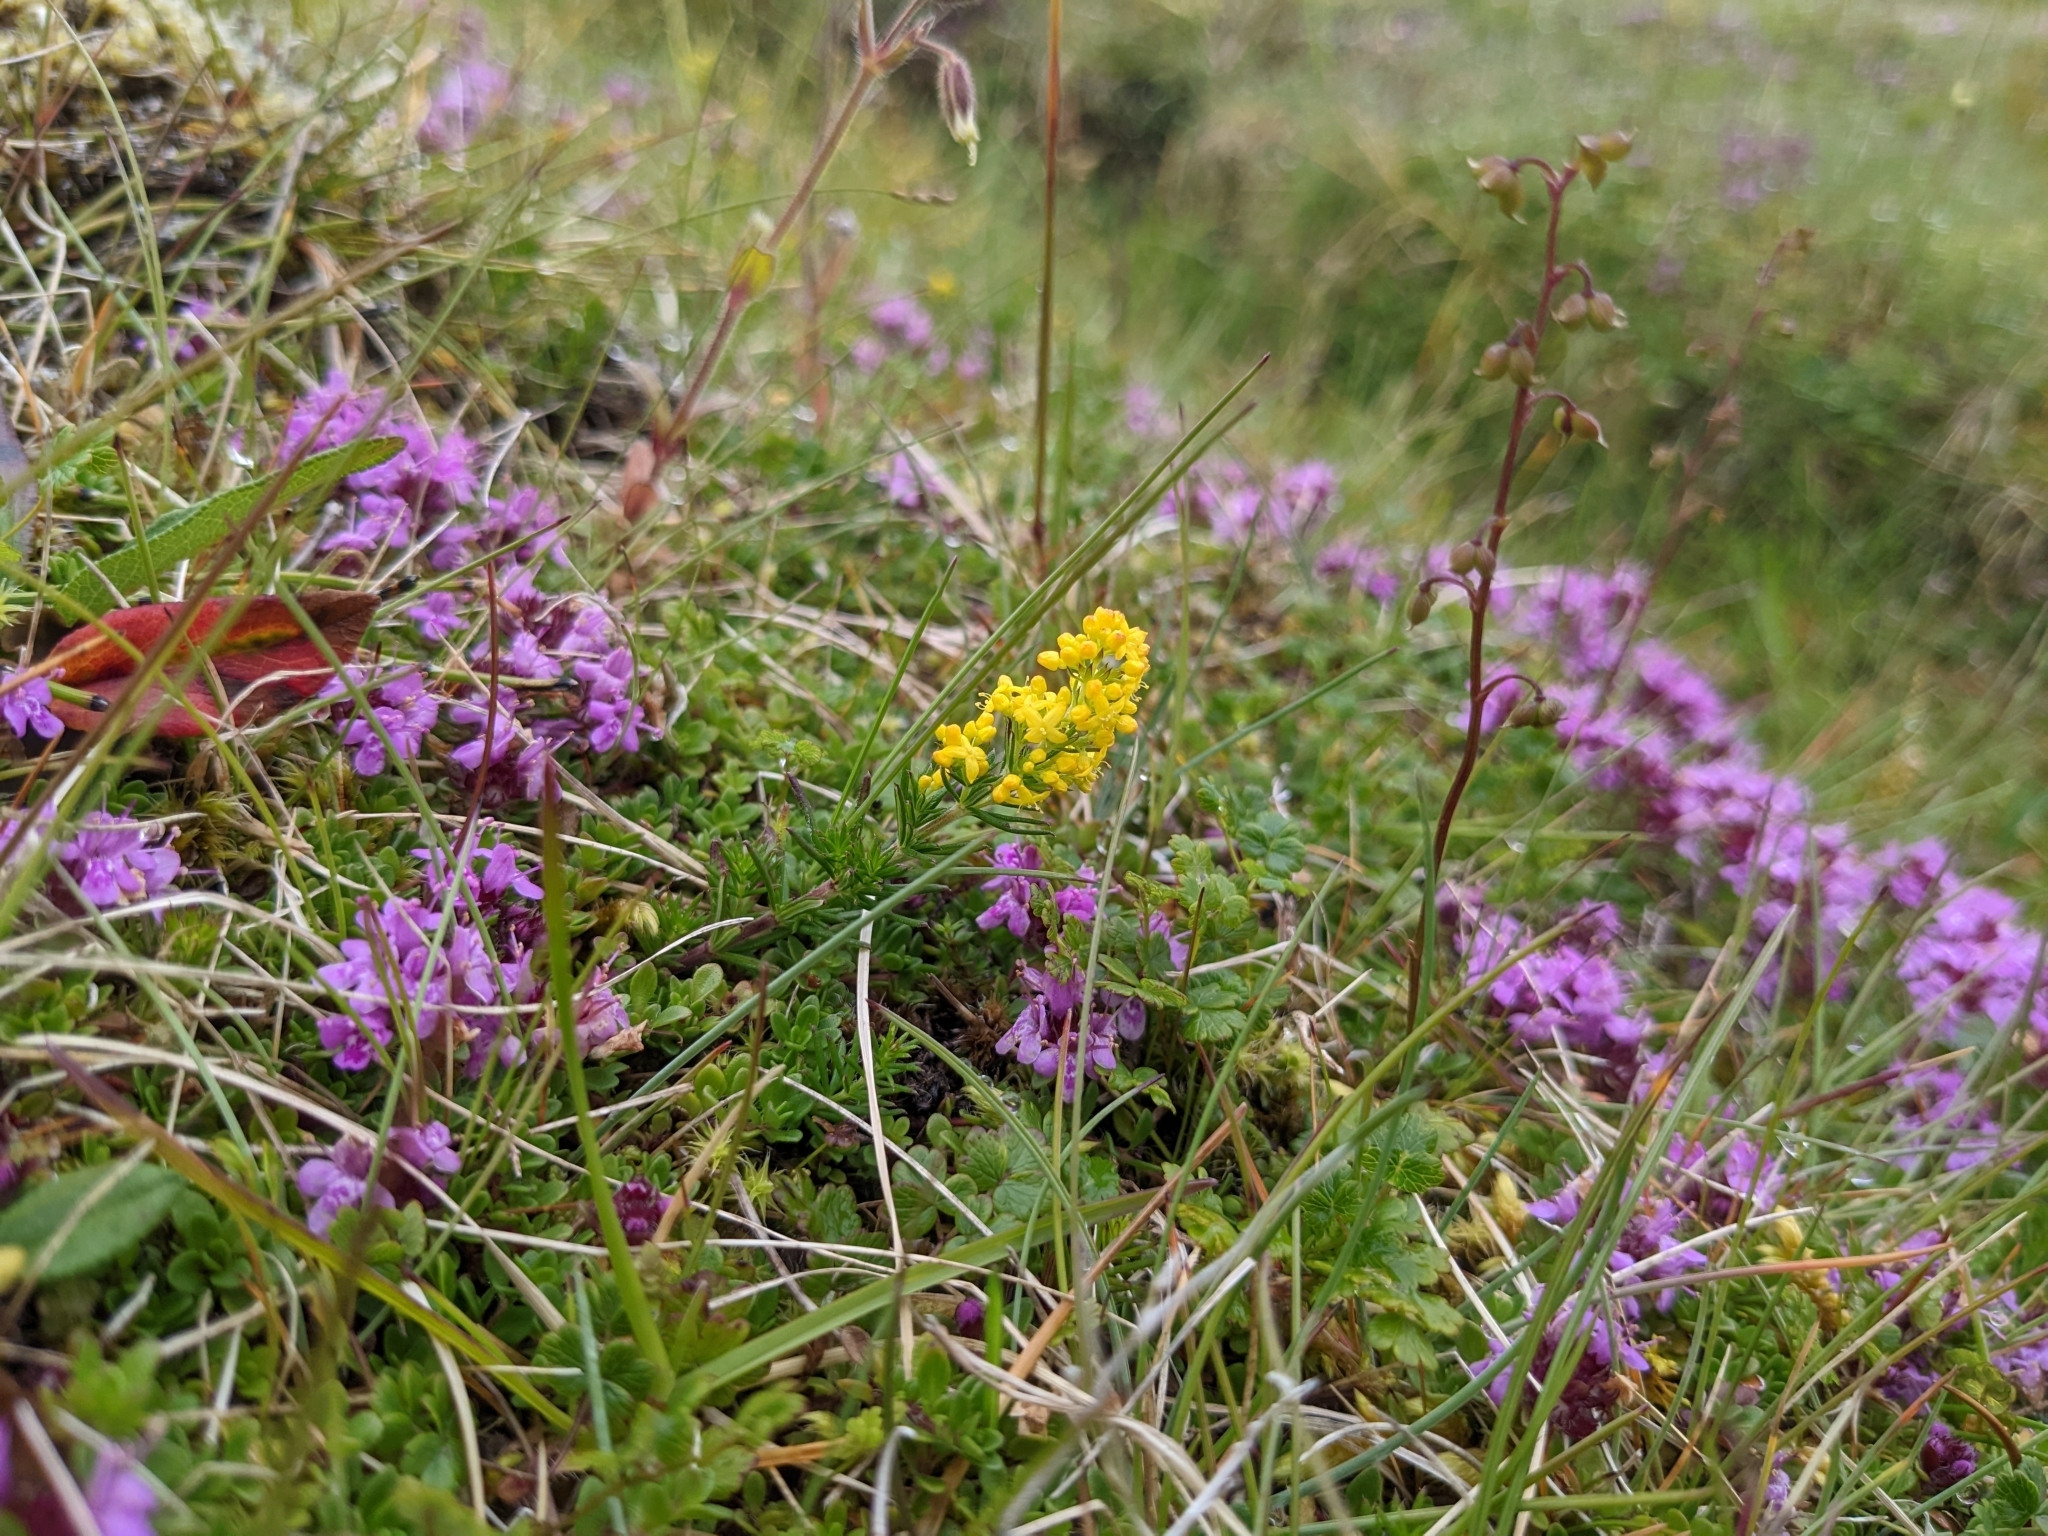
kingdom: Plantae
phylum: Tracheophyta
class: Magnoliopsida
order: Gentianales
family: Rubiaceae
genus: Galium
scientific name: Galium verum
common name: Lady's bedstraw
